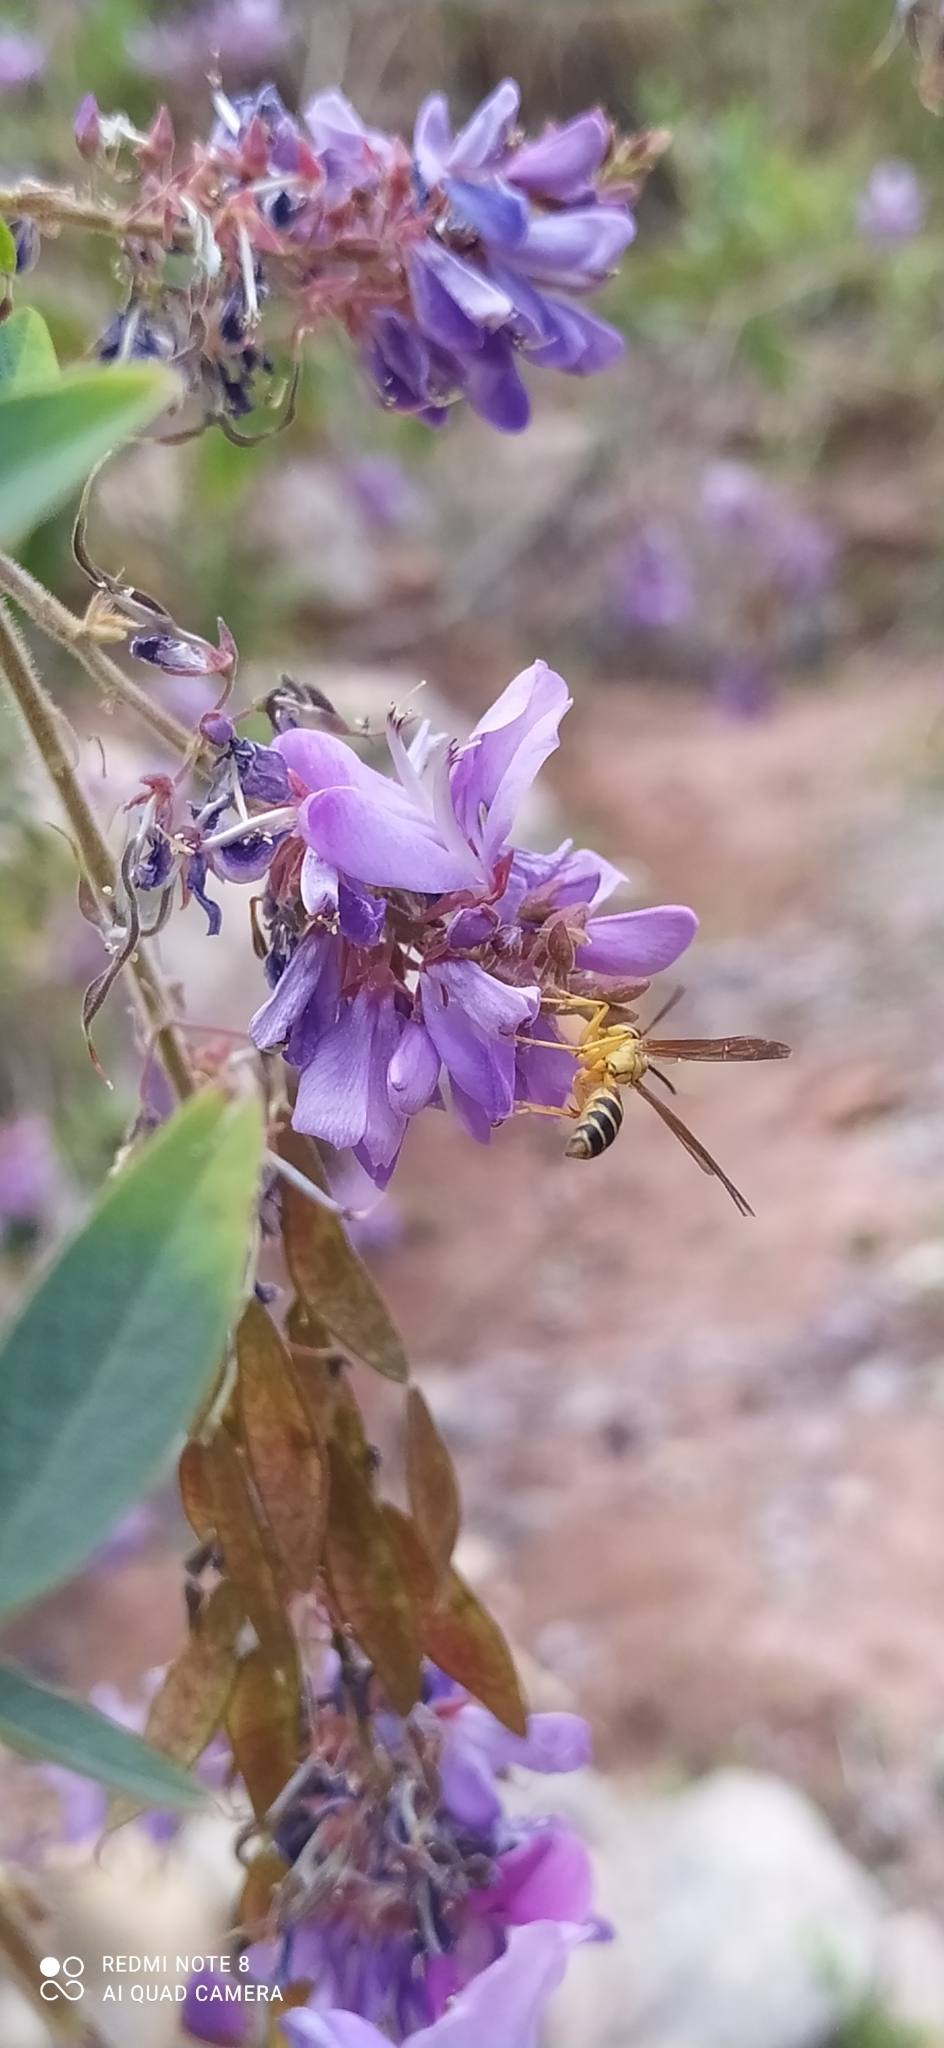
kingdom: Animalia
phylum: Arthropoda
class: Insecta
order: Hymenoptera
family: Vespidae
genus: Agelaia
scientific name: Agelaia
